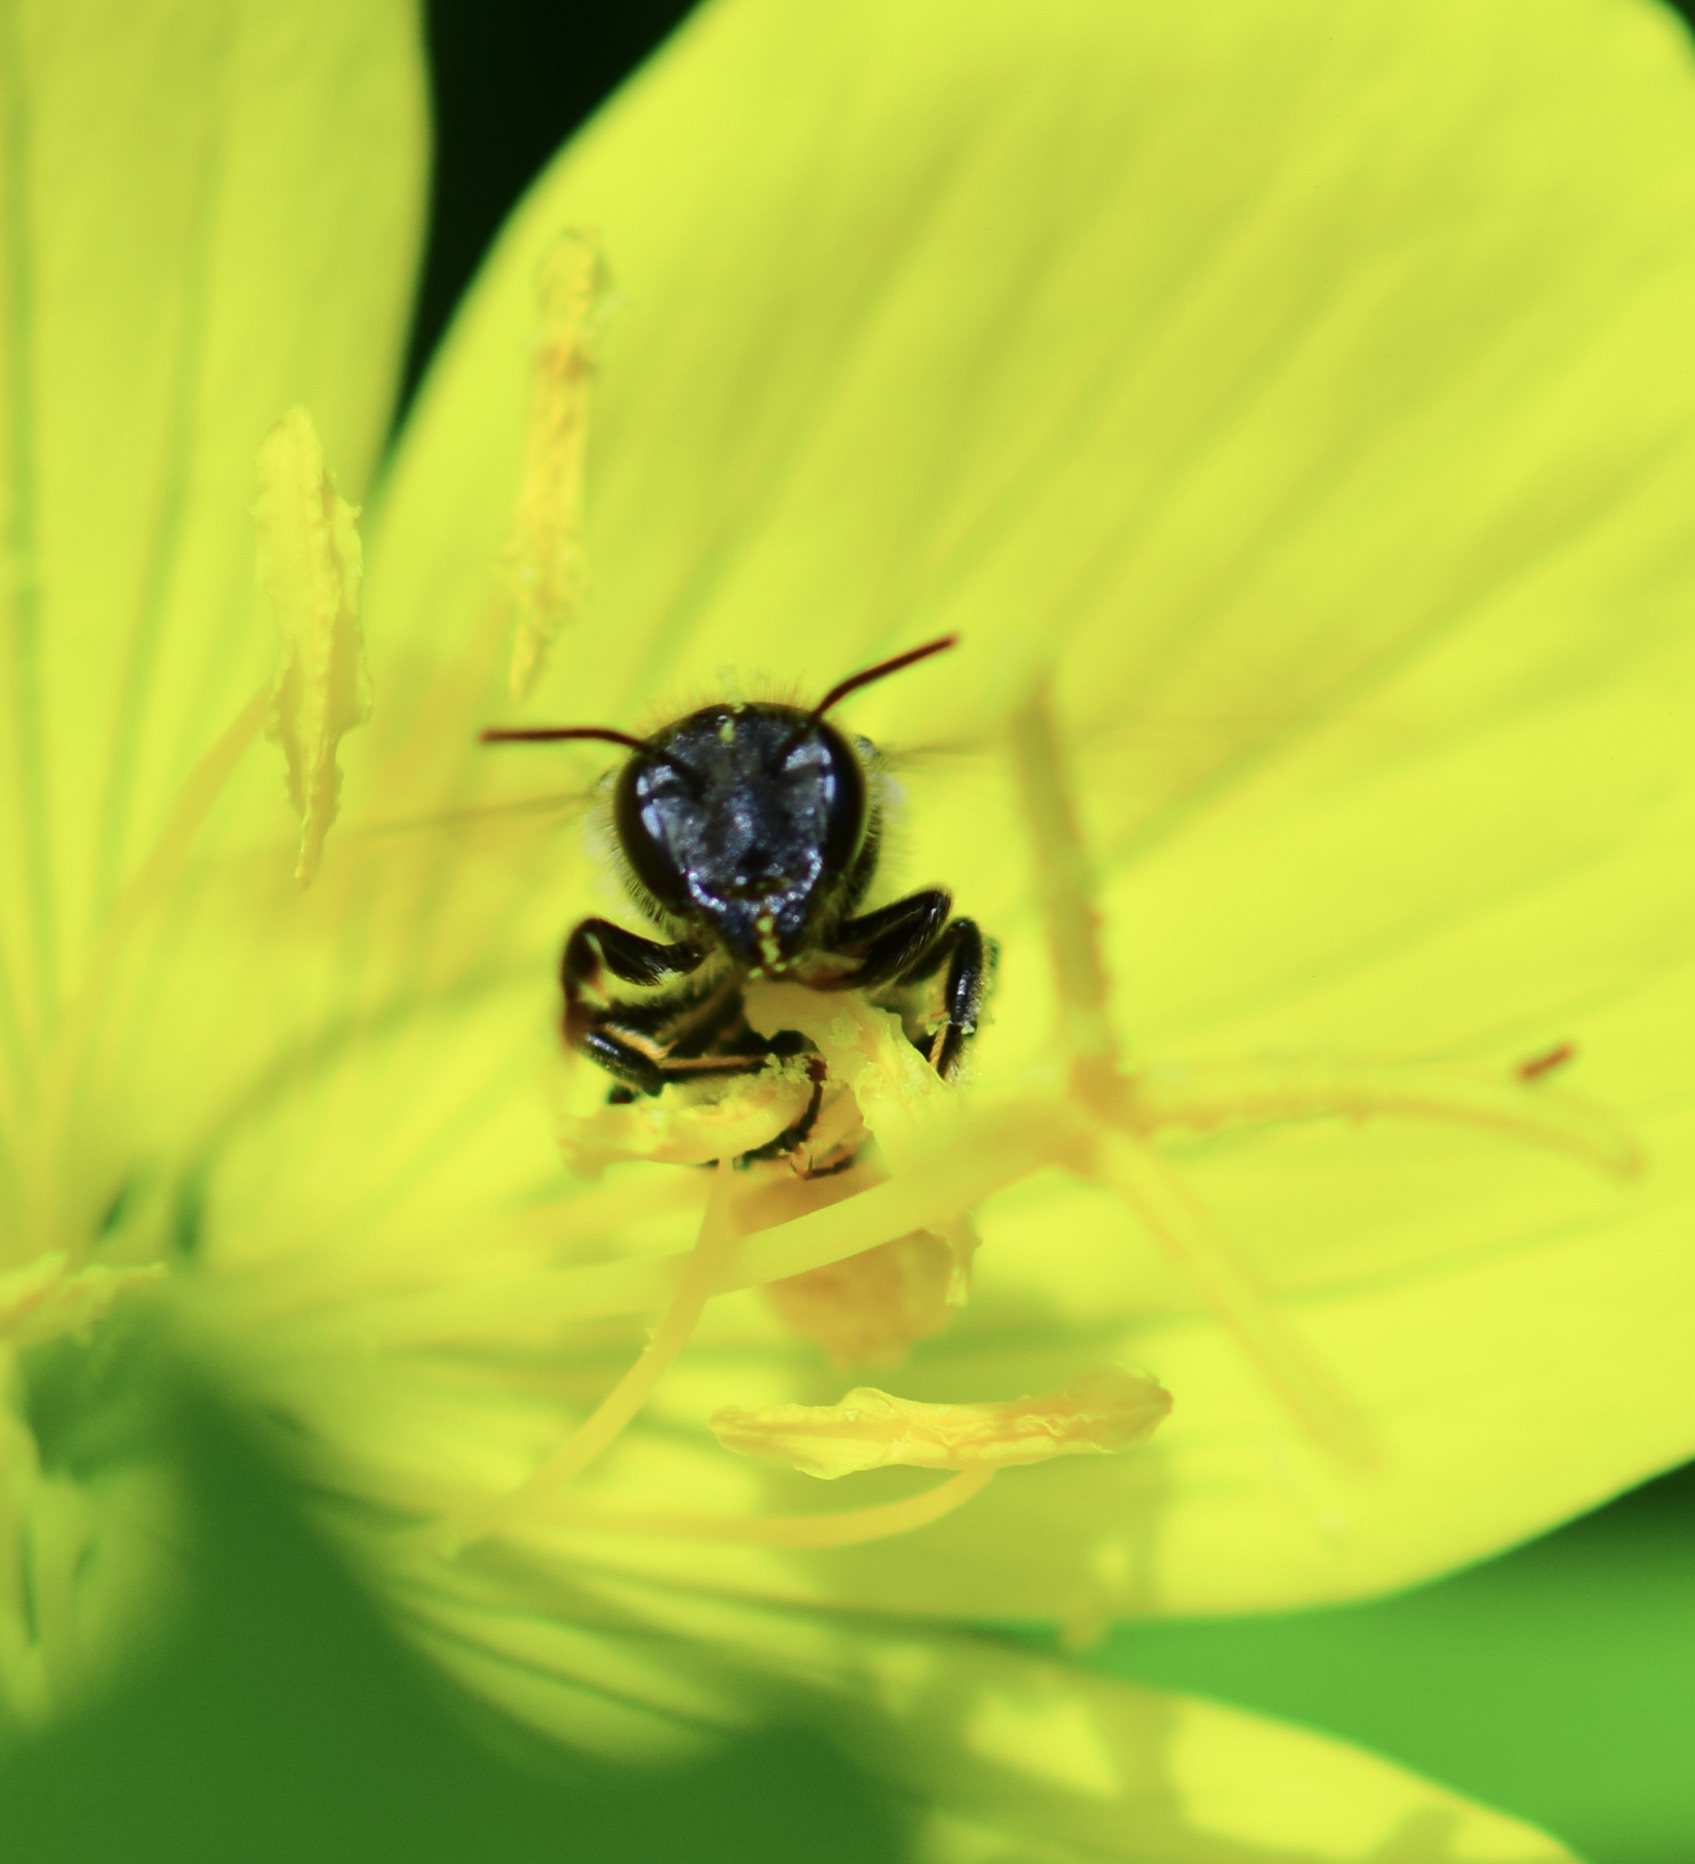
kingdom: Animalia
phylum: Arthropoda
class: Insecta
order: Hymenoptera
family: Megachilidae
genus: Megachile
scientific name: Megachile montivaga
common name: Silver-tailed petalcutter bee
